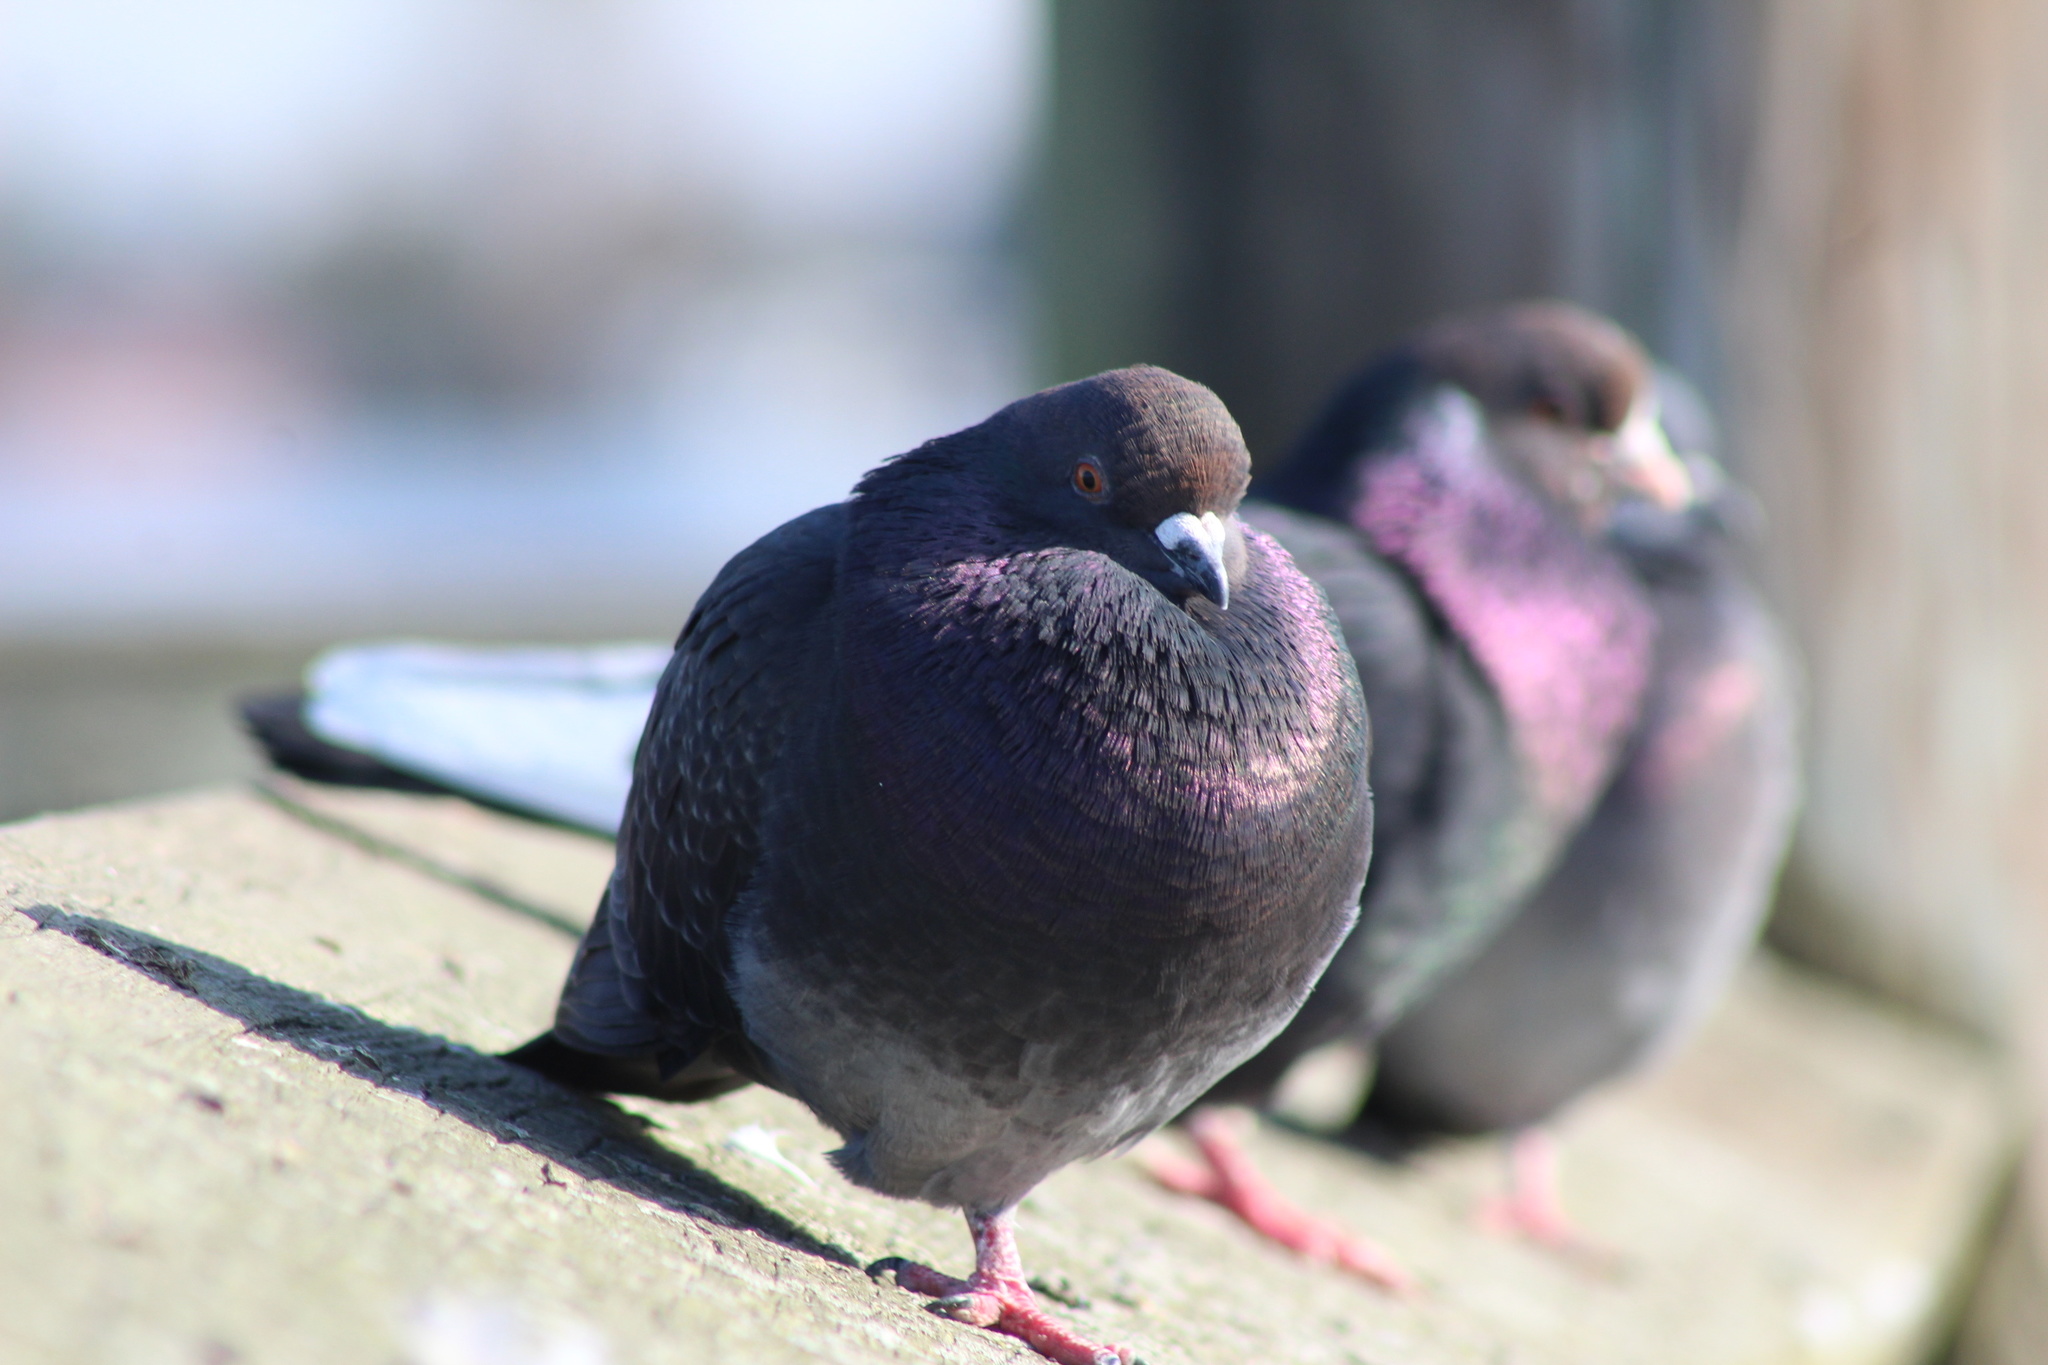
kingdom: Animalia
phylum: Chordata
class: Aves
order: Columbiformes
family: Columbidae
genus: Columba
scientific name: Columba livia
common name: Rock pigeon
